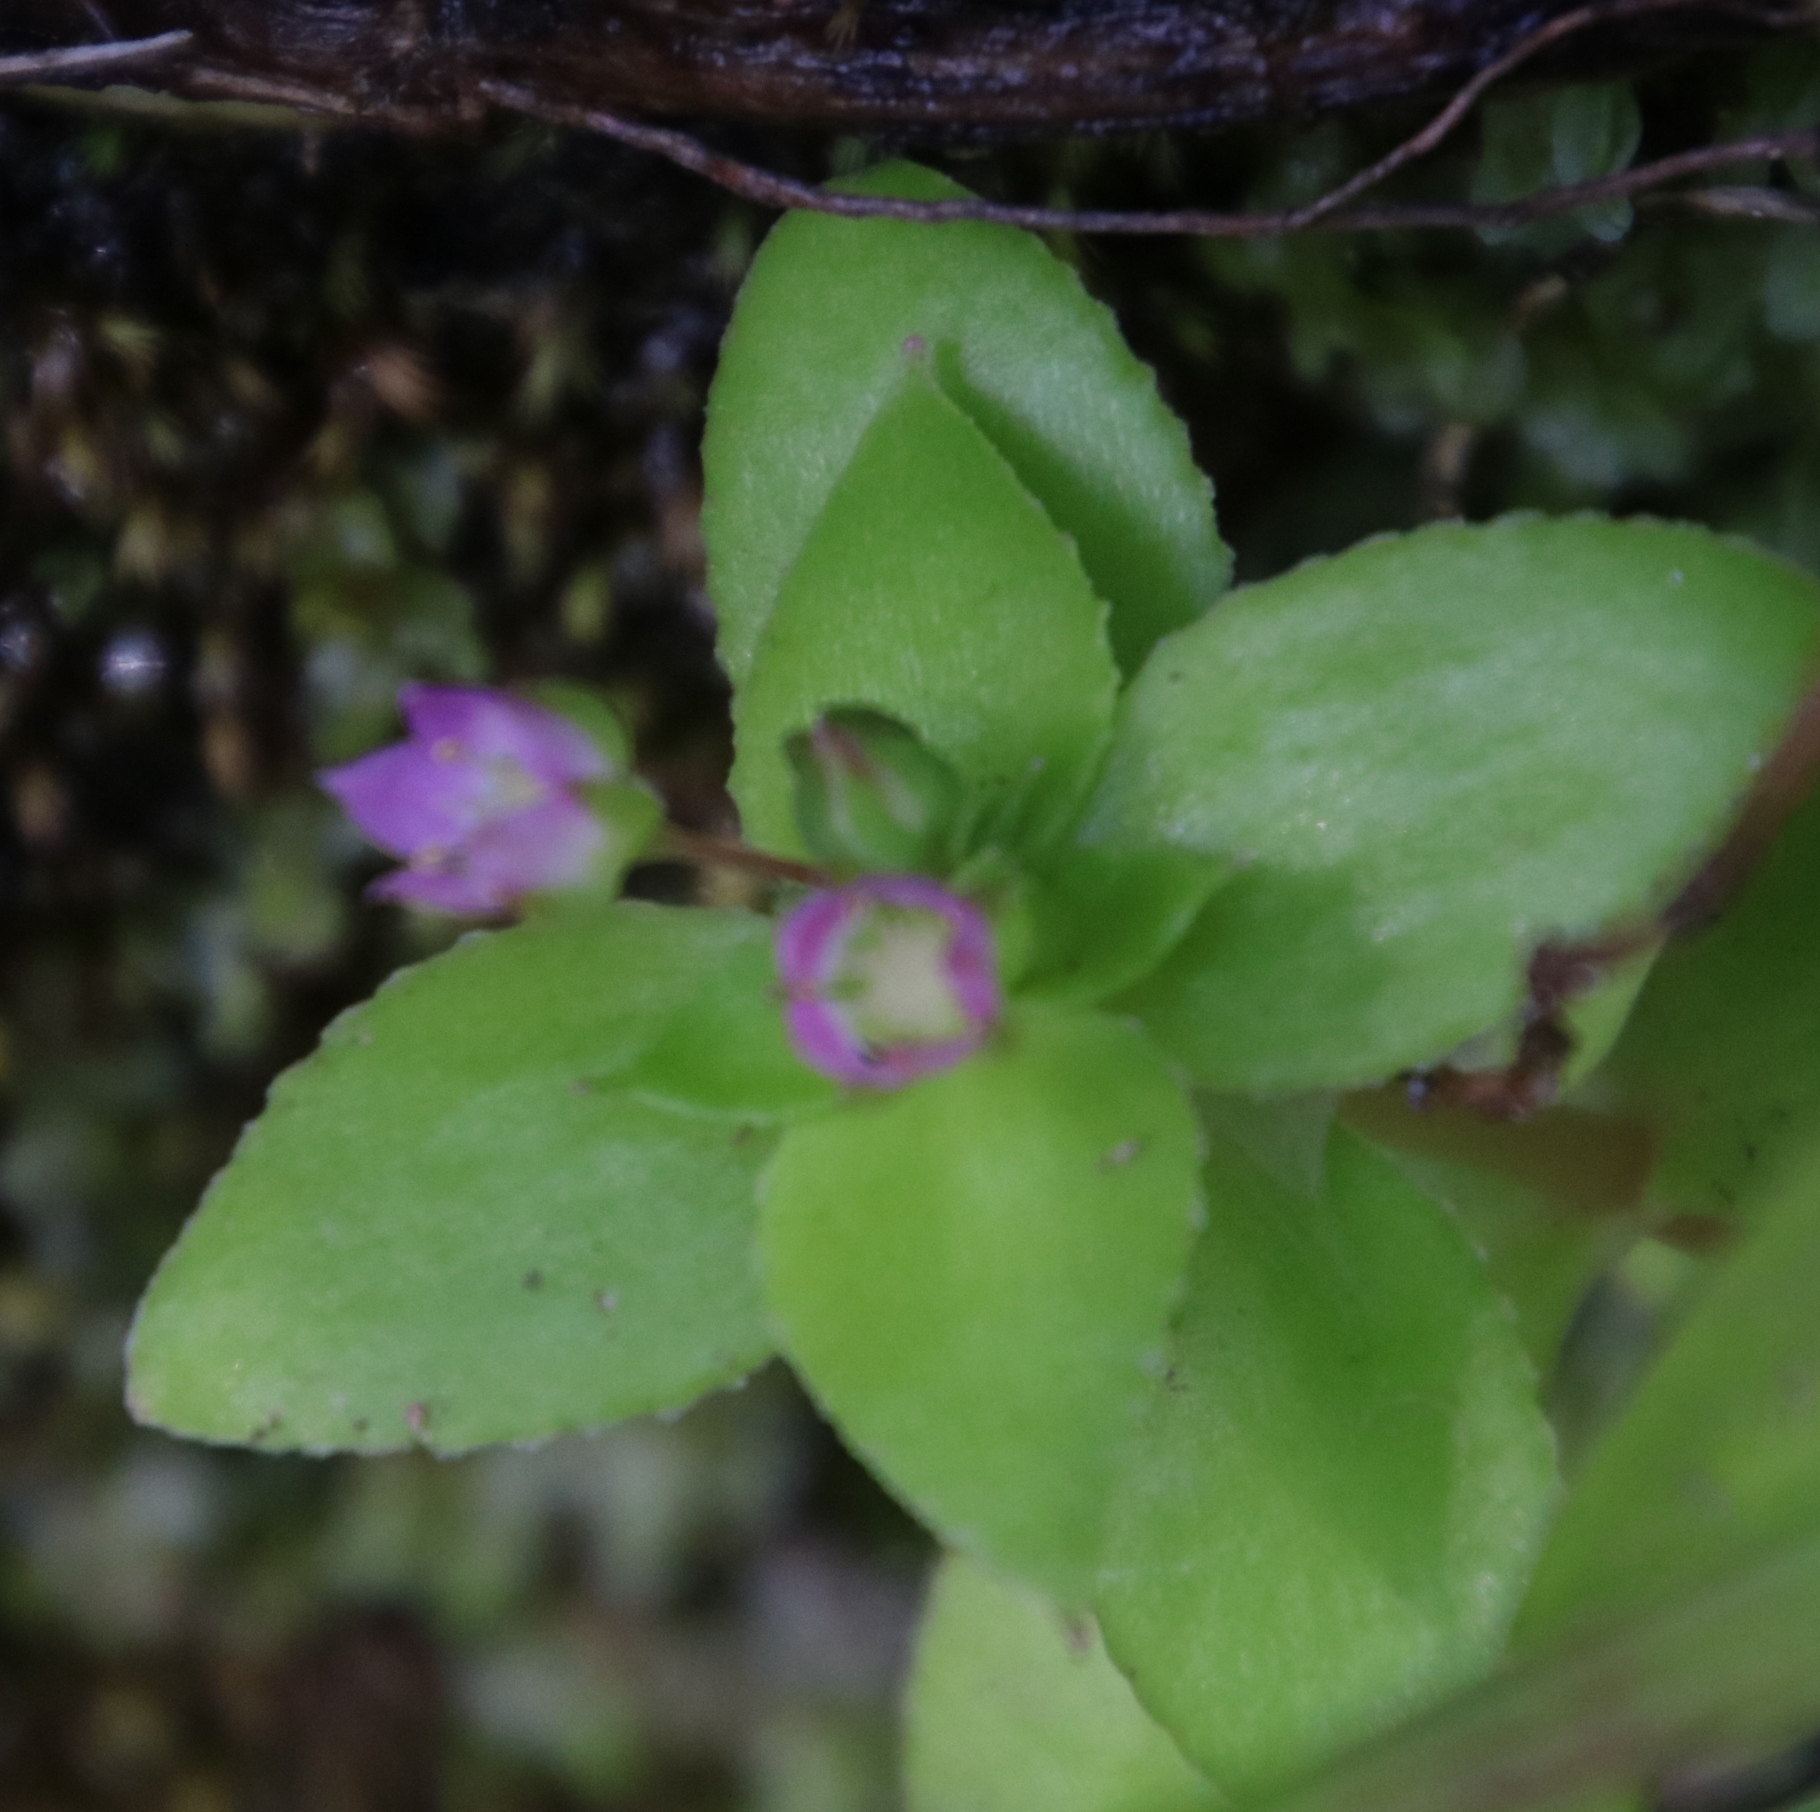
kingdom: Plantae
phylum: Tracheophyta
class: Magnoliopsida
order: Saxifragales
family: Crassulaceae
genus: Crassula
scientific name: Crassula pellucida
